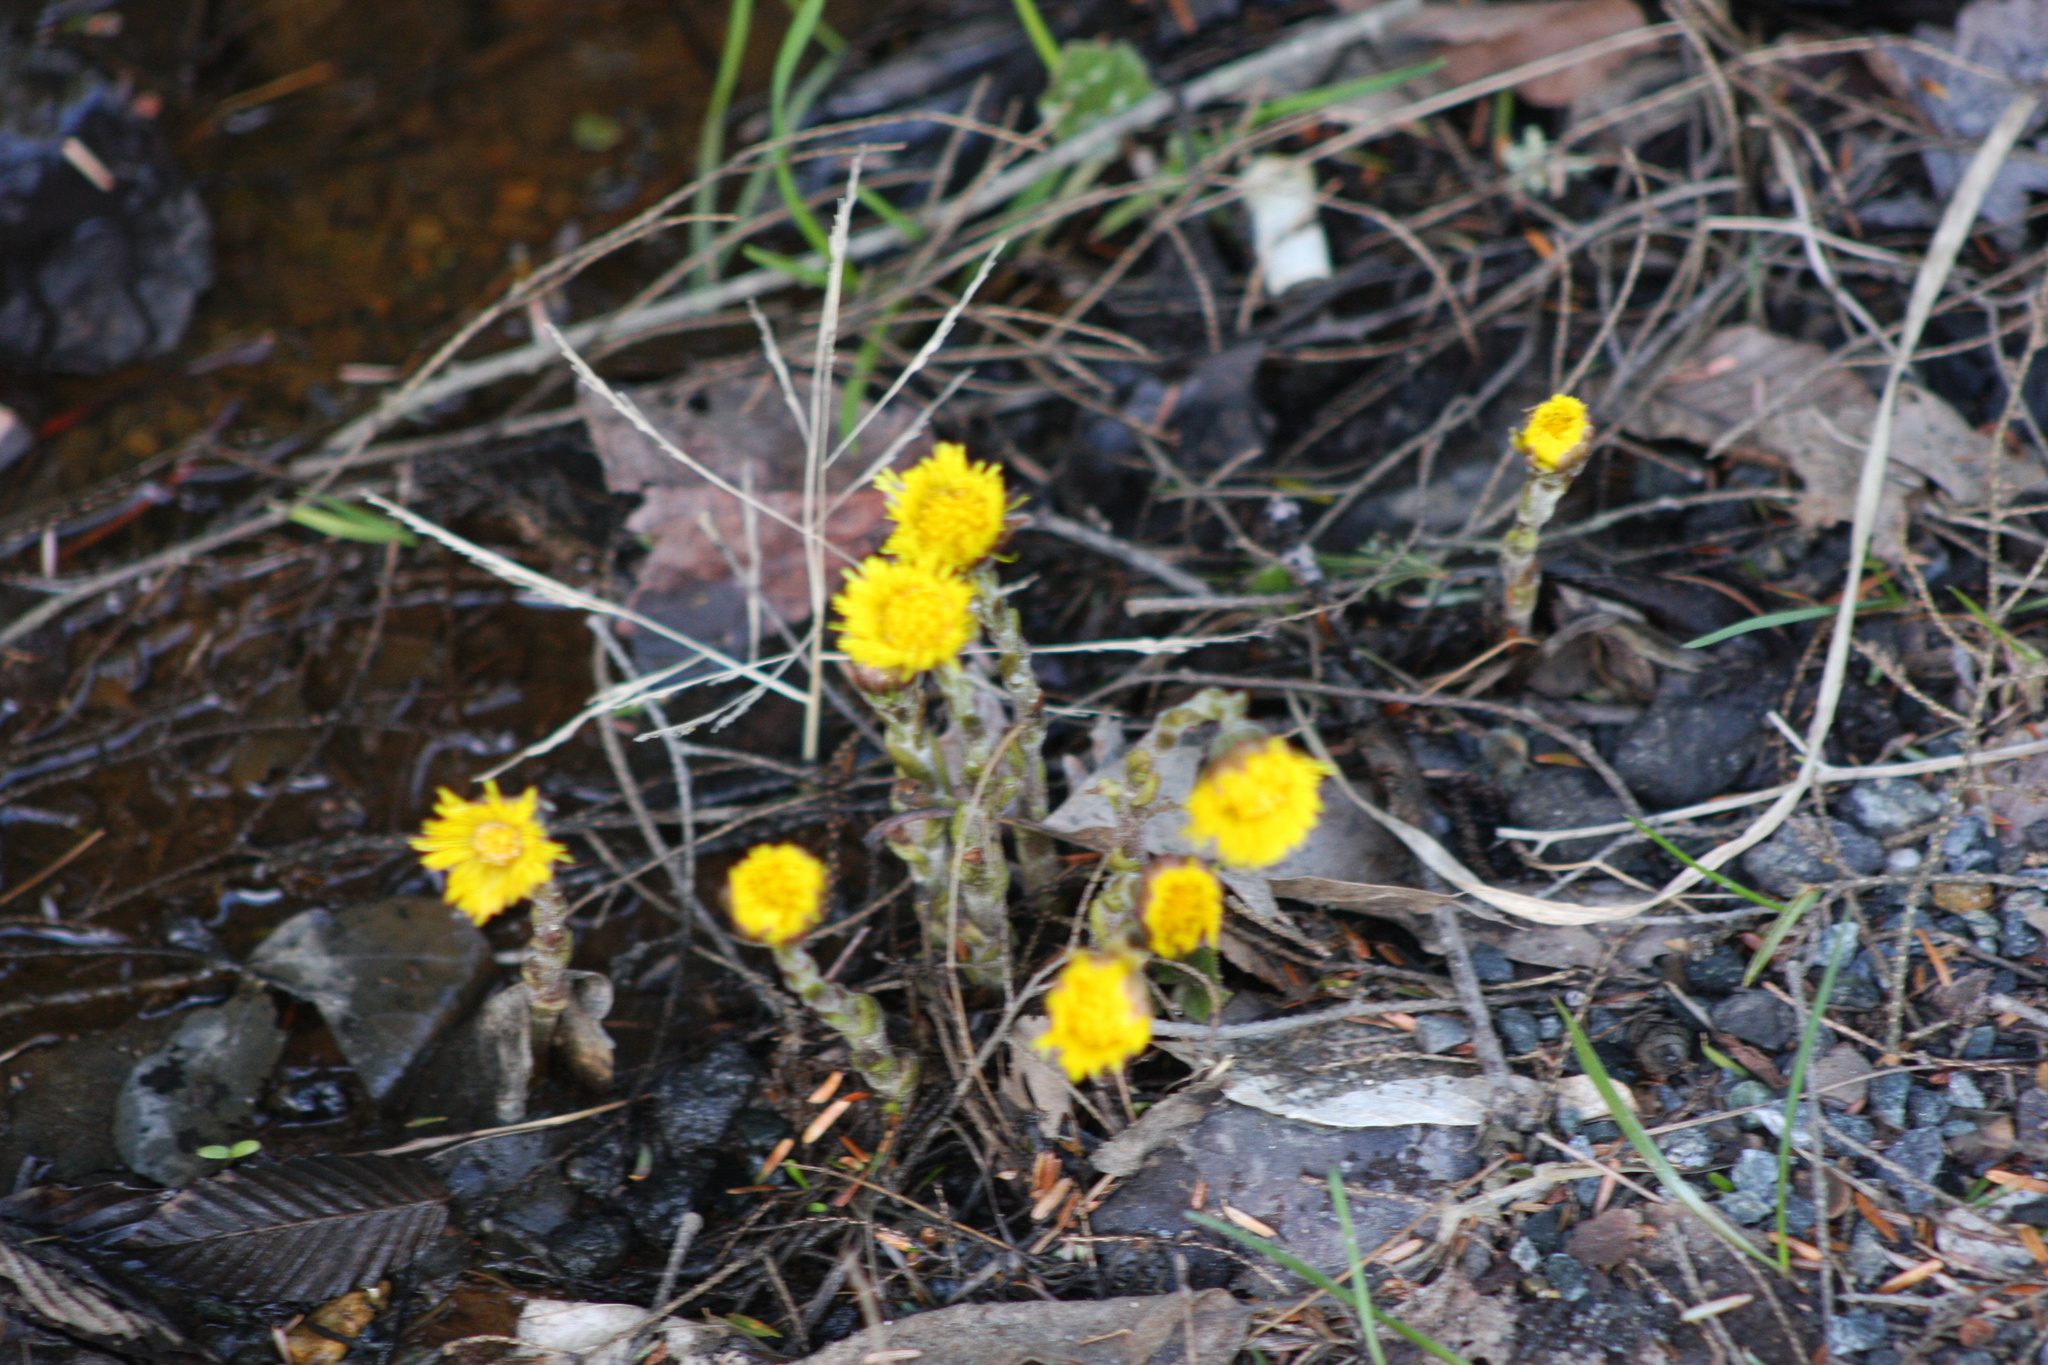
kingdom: Plantae
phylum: Tracheophyta
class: Magnoliopsida
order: Asterales
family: Asteraceae
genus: Tussilago
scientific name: Tussilago farfara
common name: Coltsfoot
